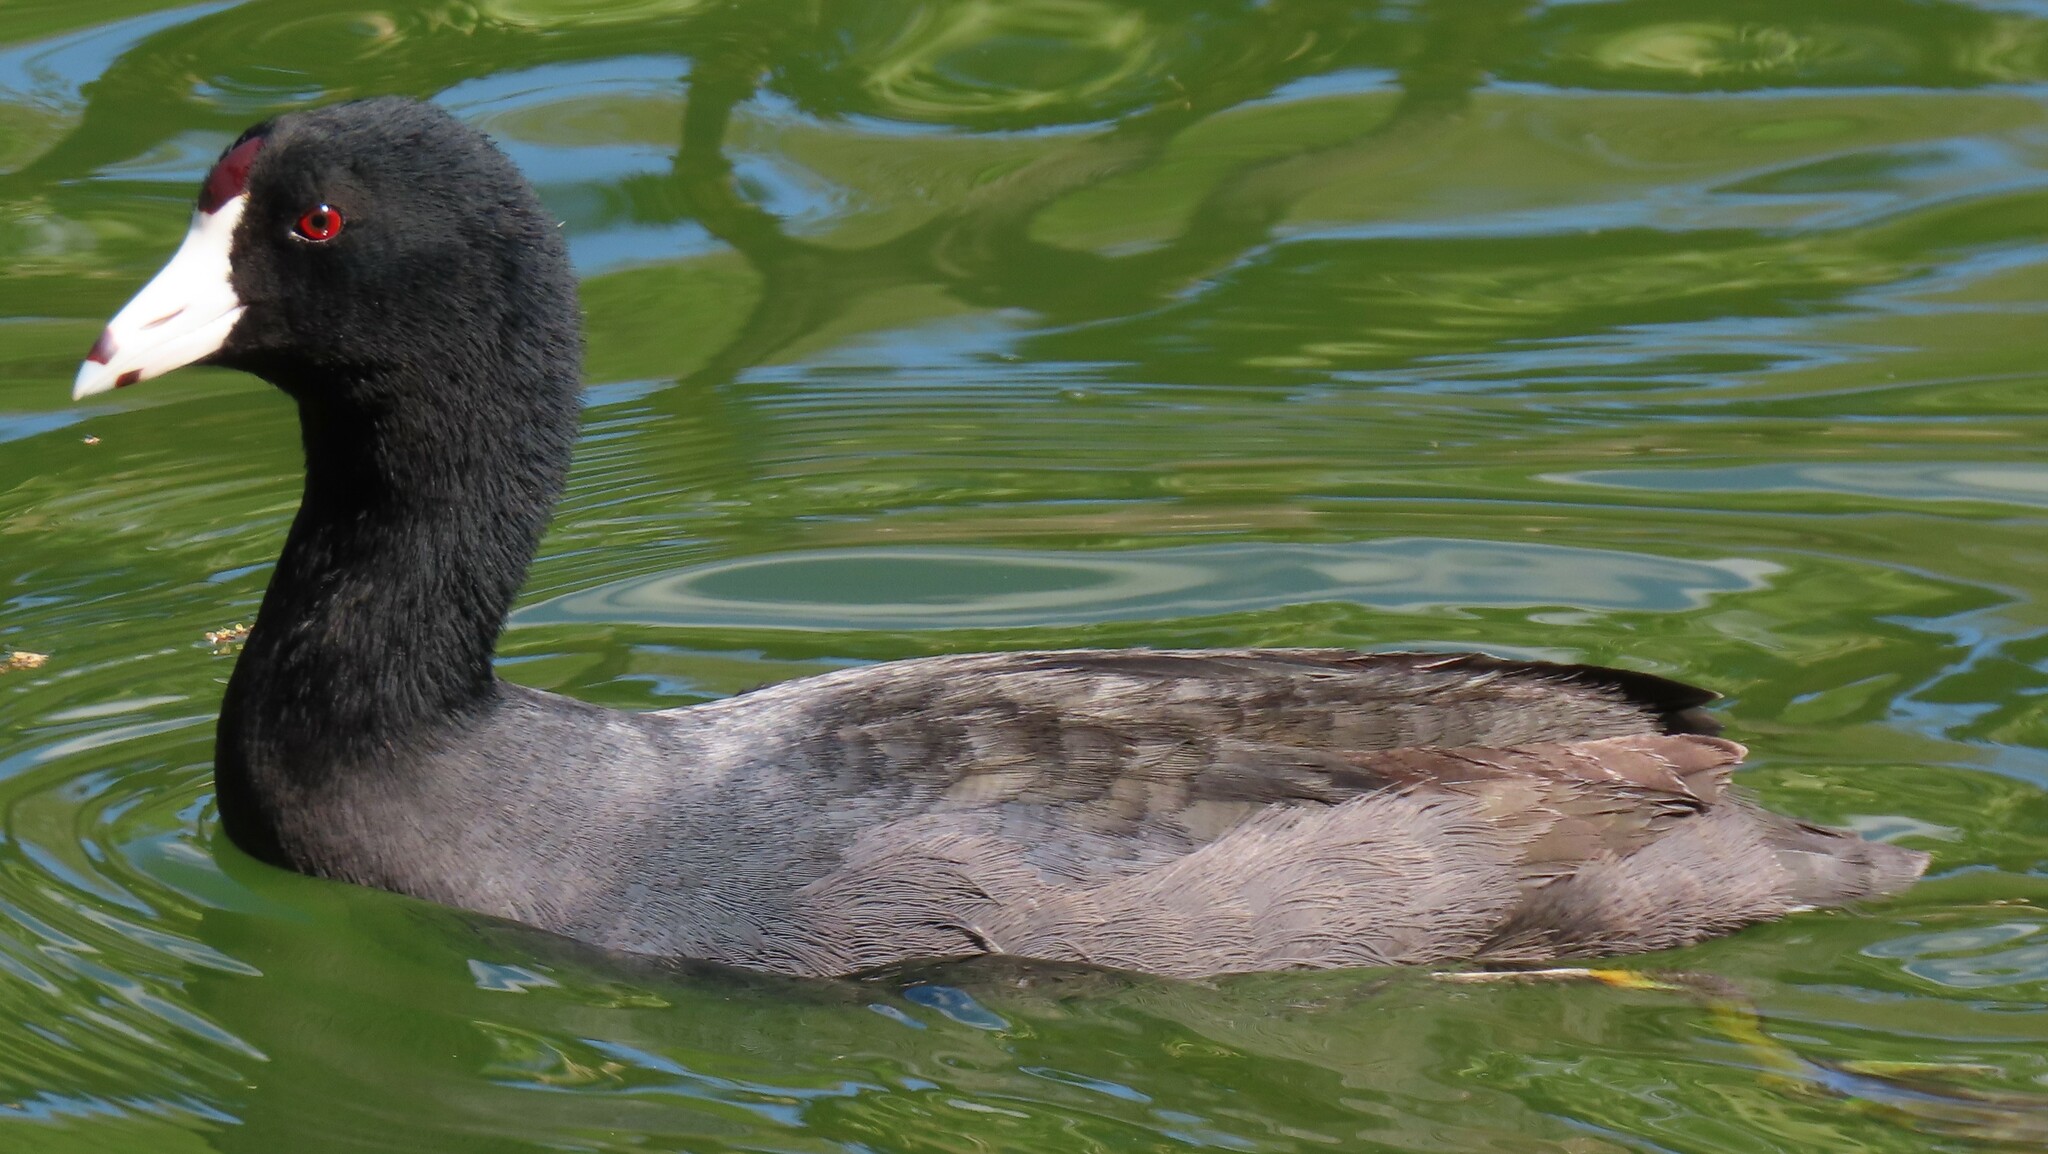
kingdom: Animalia
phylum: Chordata
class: Aves
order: Gruiformes
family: Rallidae
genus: Fulica
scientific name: Fulica americana
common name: American coot
